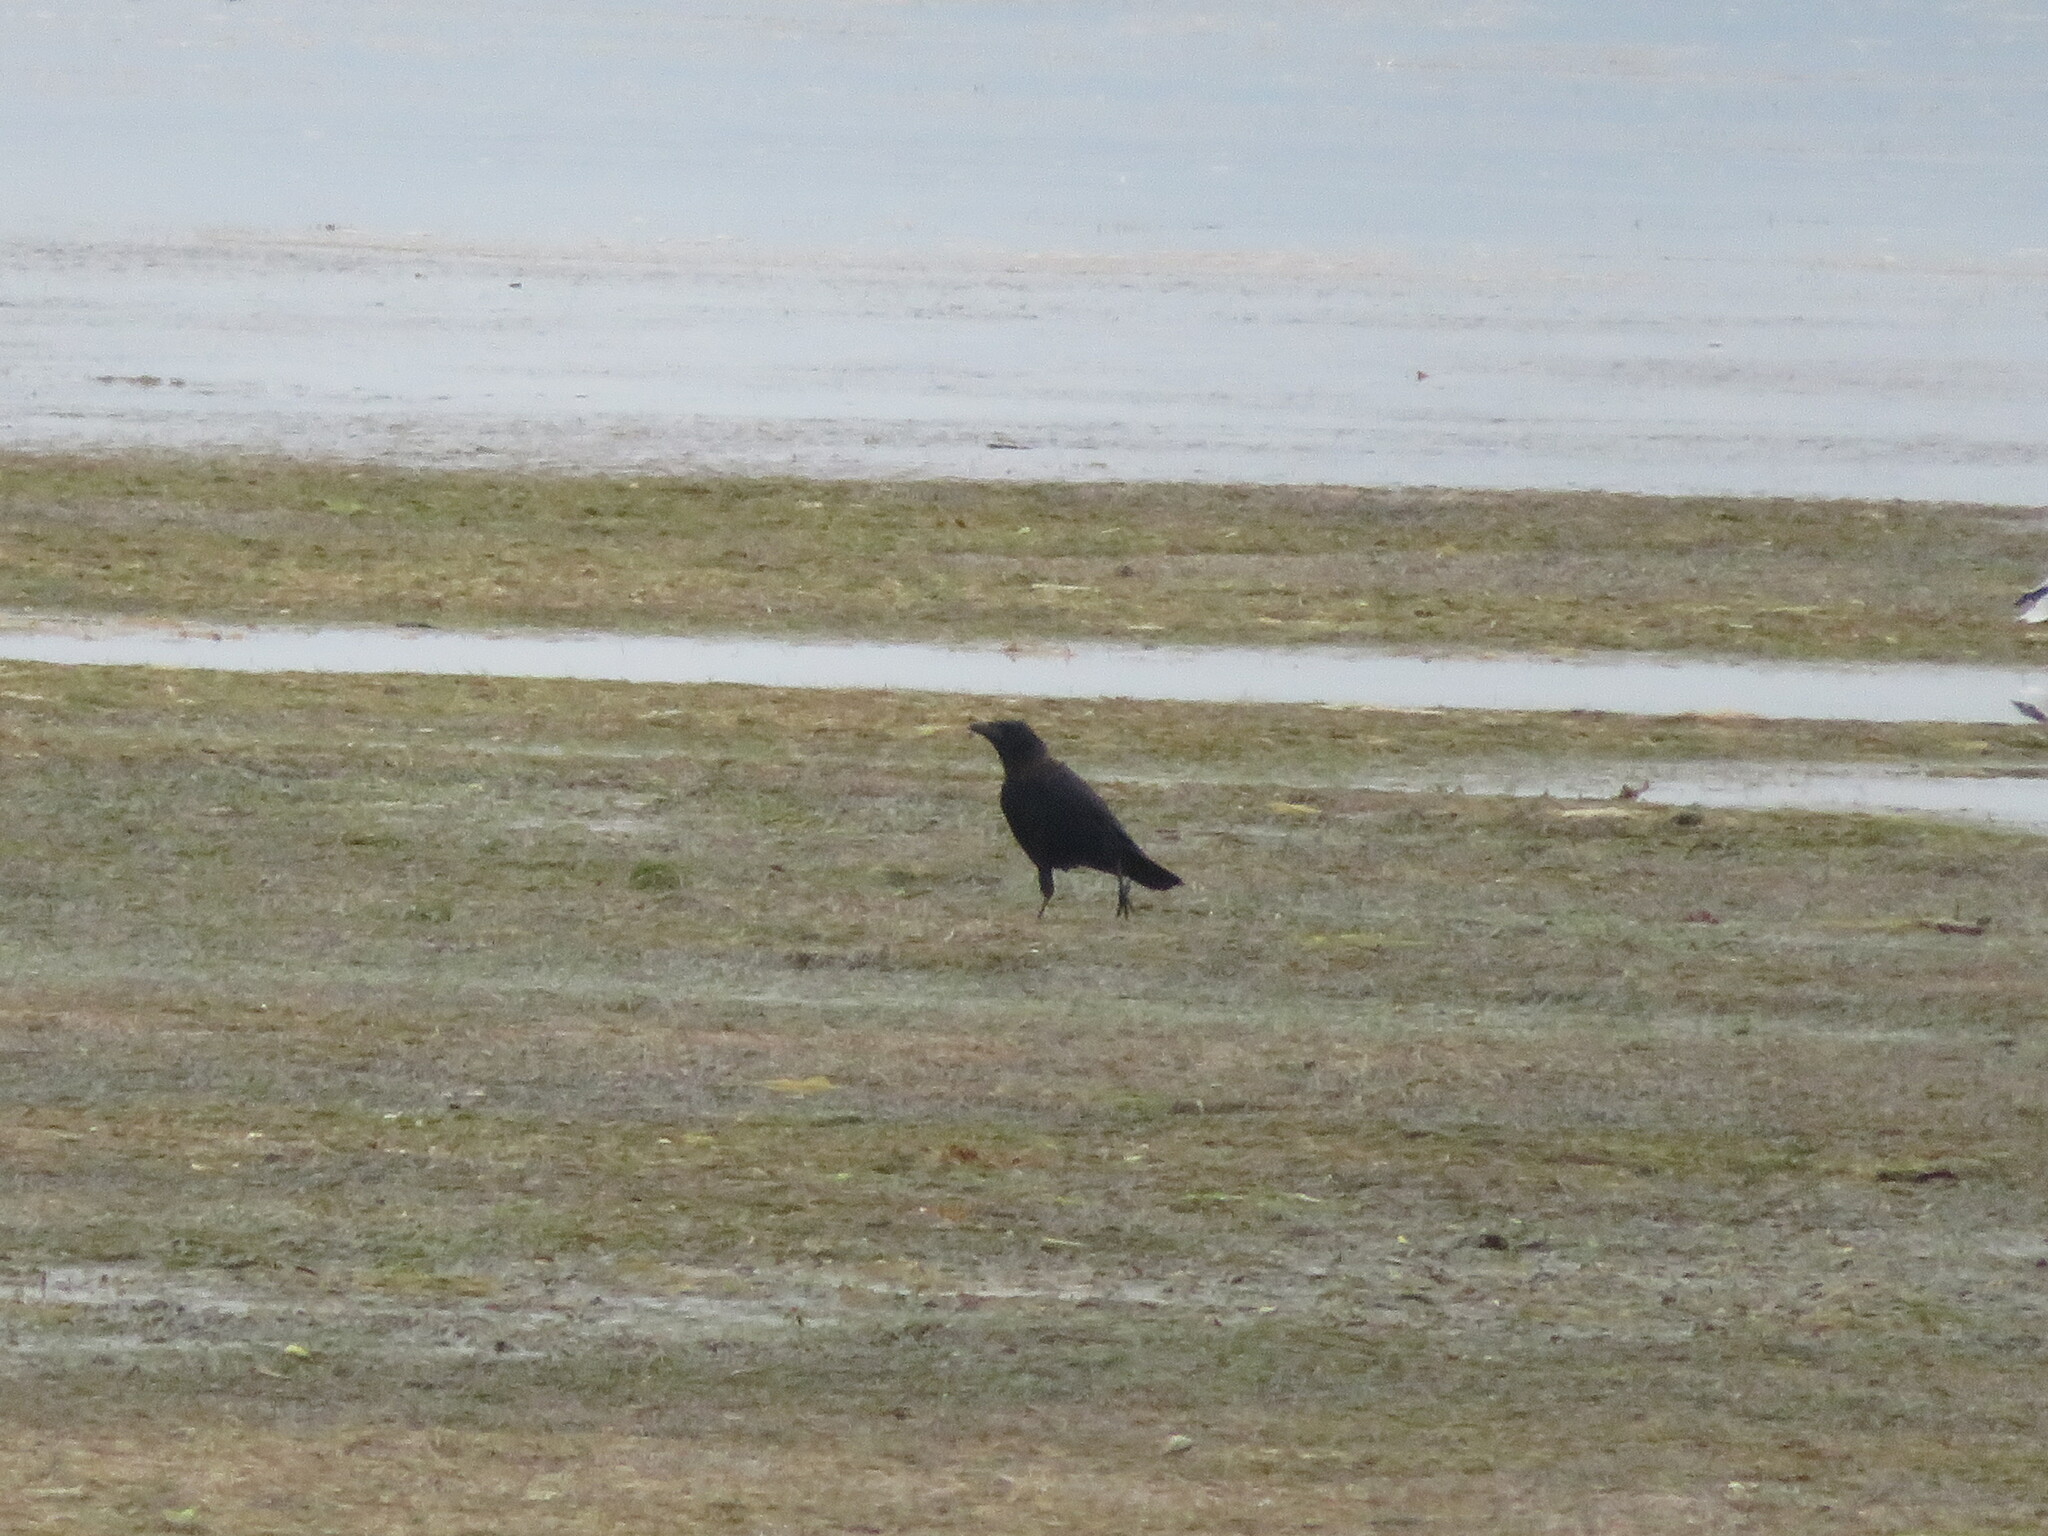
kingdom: Animalia
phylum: Chordata
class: Aves
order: Passeriformes
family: Corvidae
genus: Corvus
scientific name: Corvus corone
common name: Carrion crow
